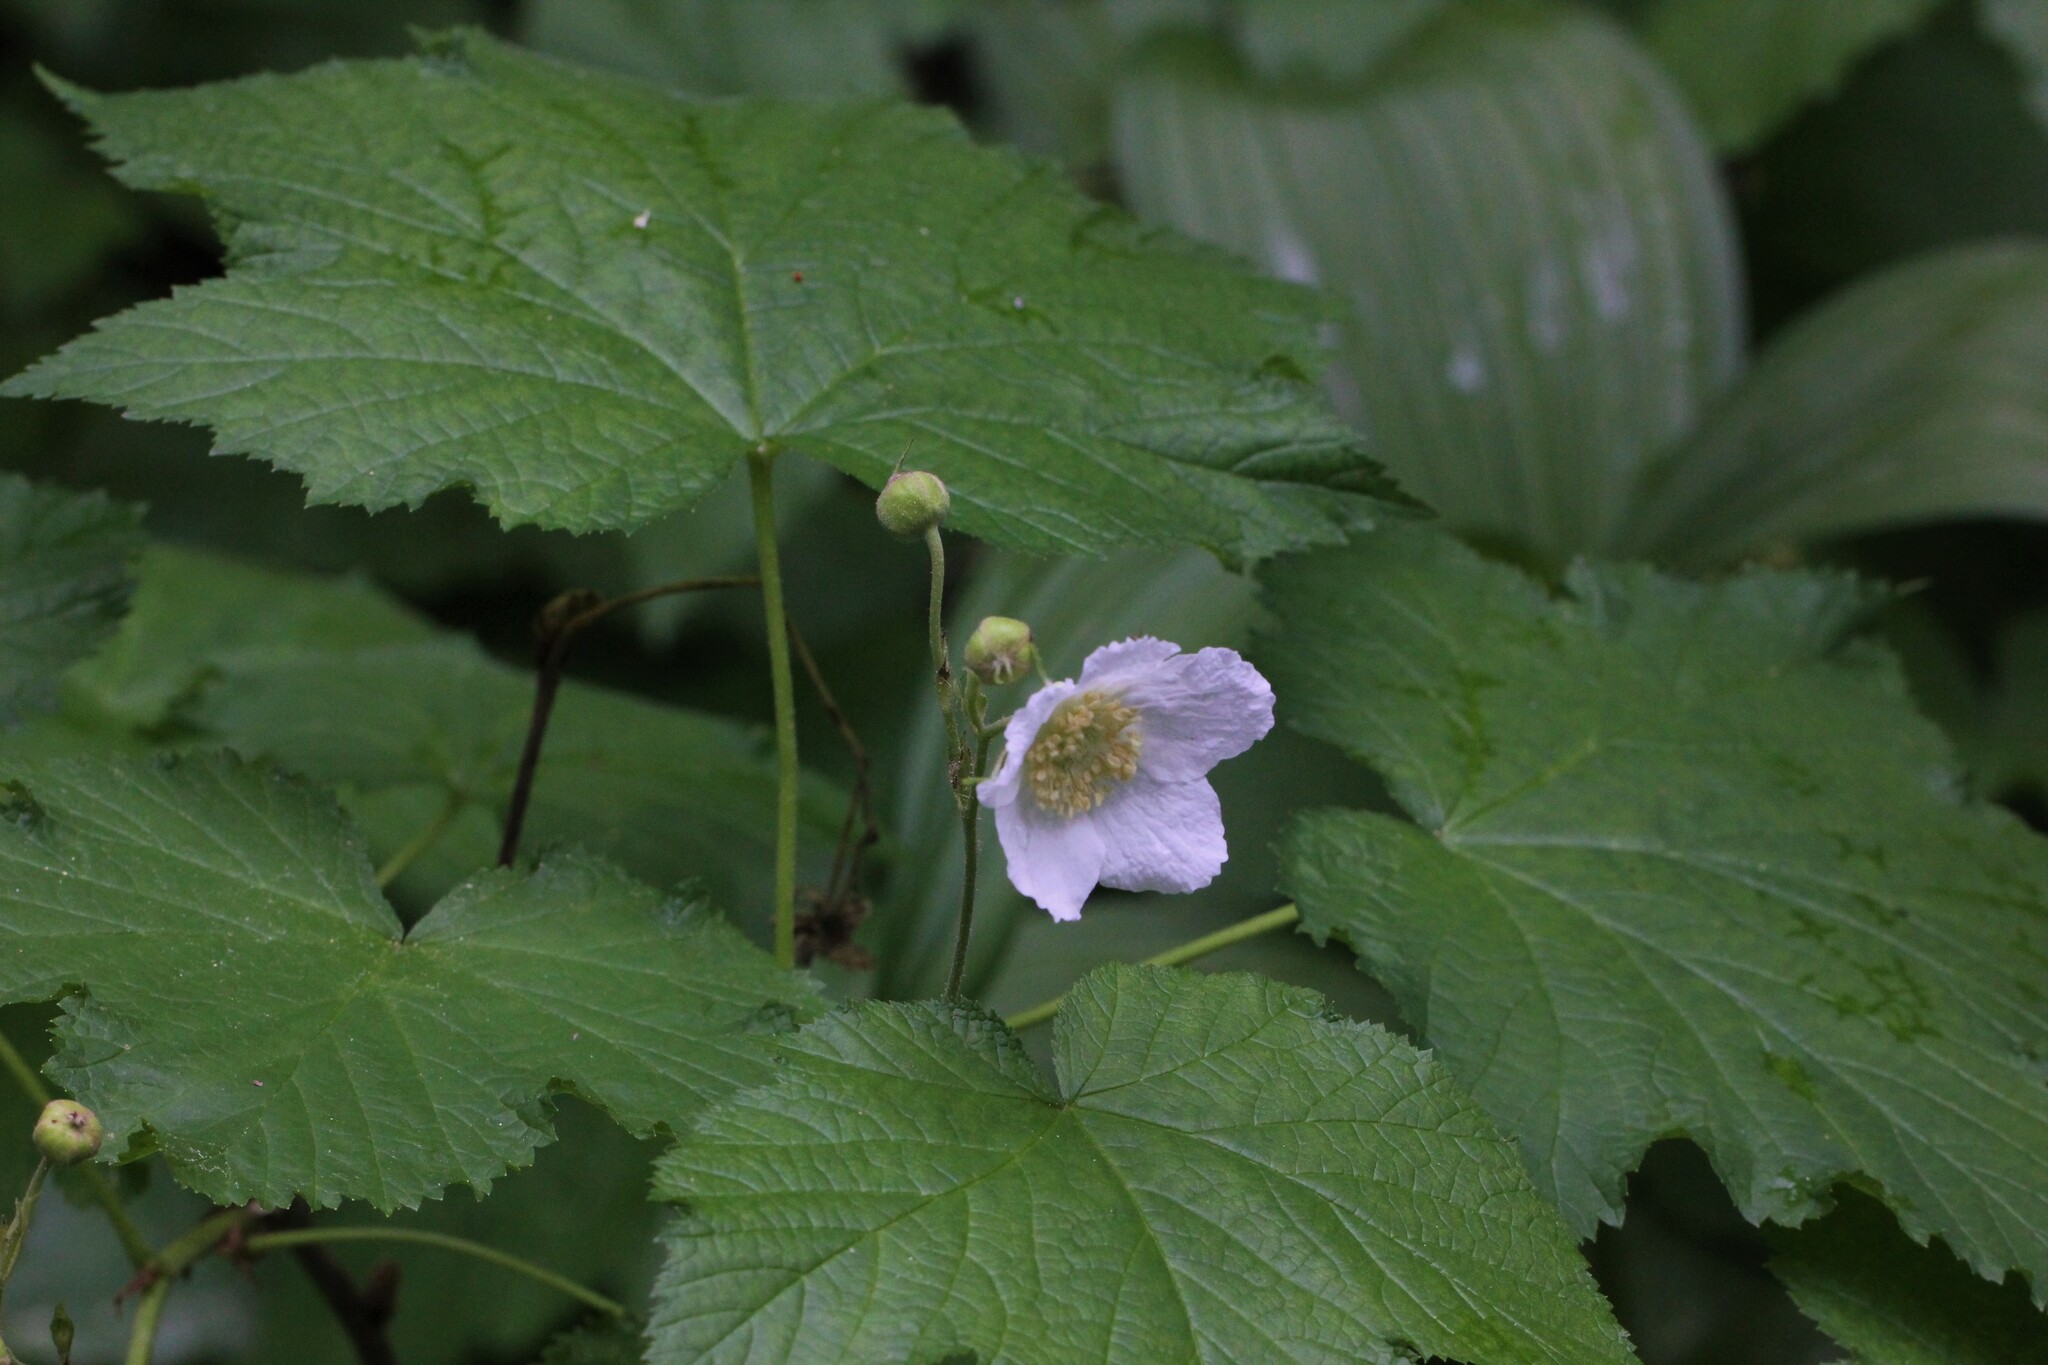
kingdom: Plantae
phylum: Tracheophyta
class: Magnoliopsida
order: Rosales
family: Rosaceae
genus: Rubus
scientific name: Rubus parviflorus
